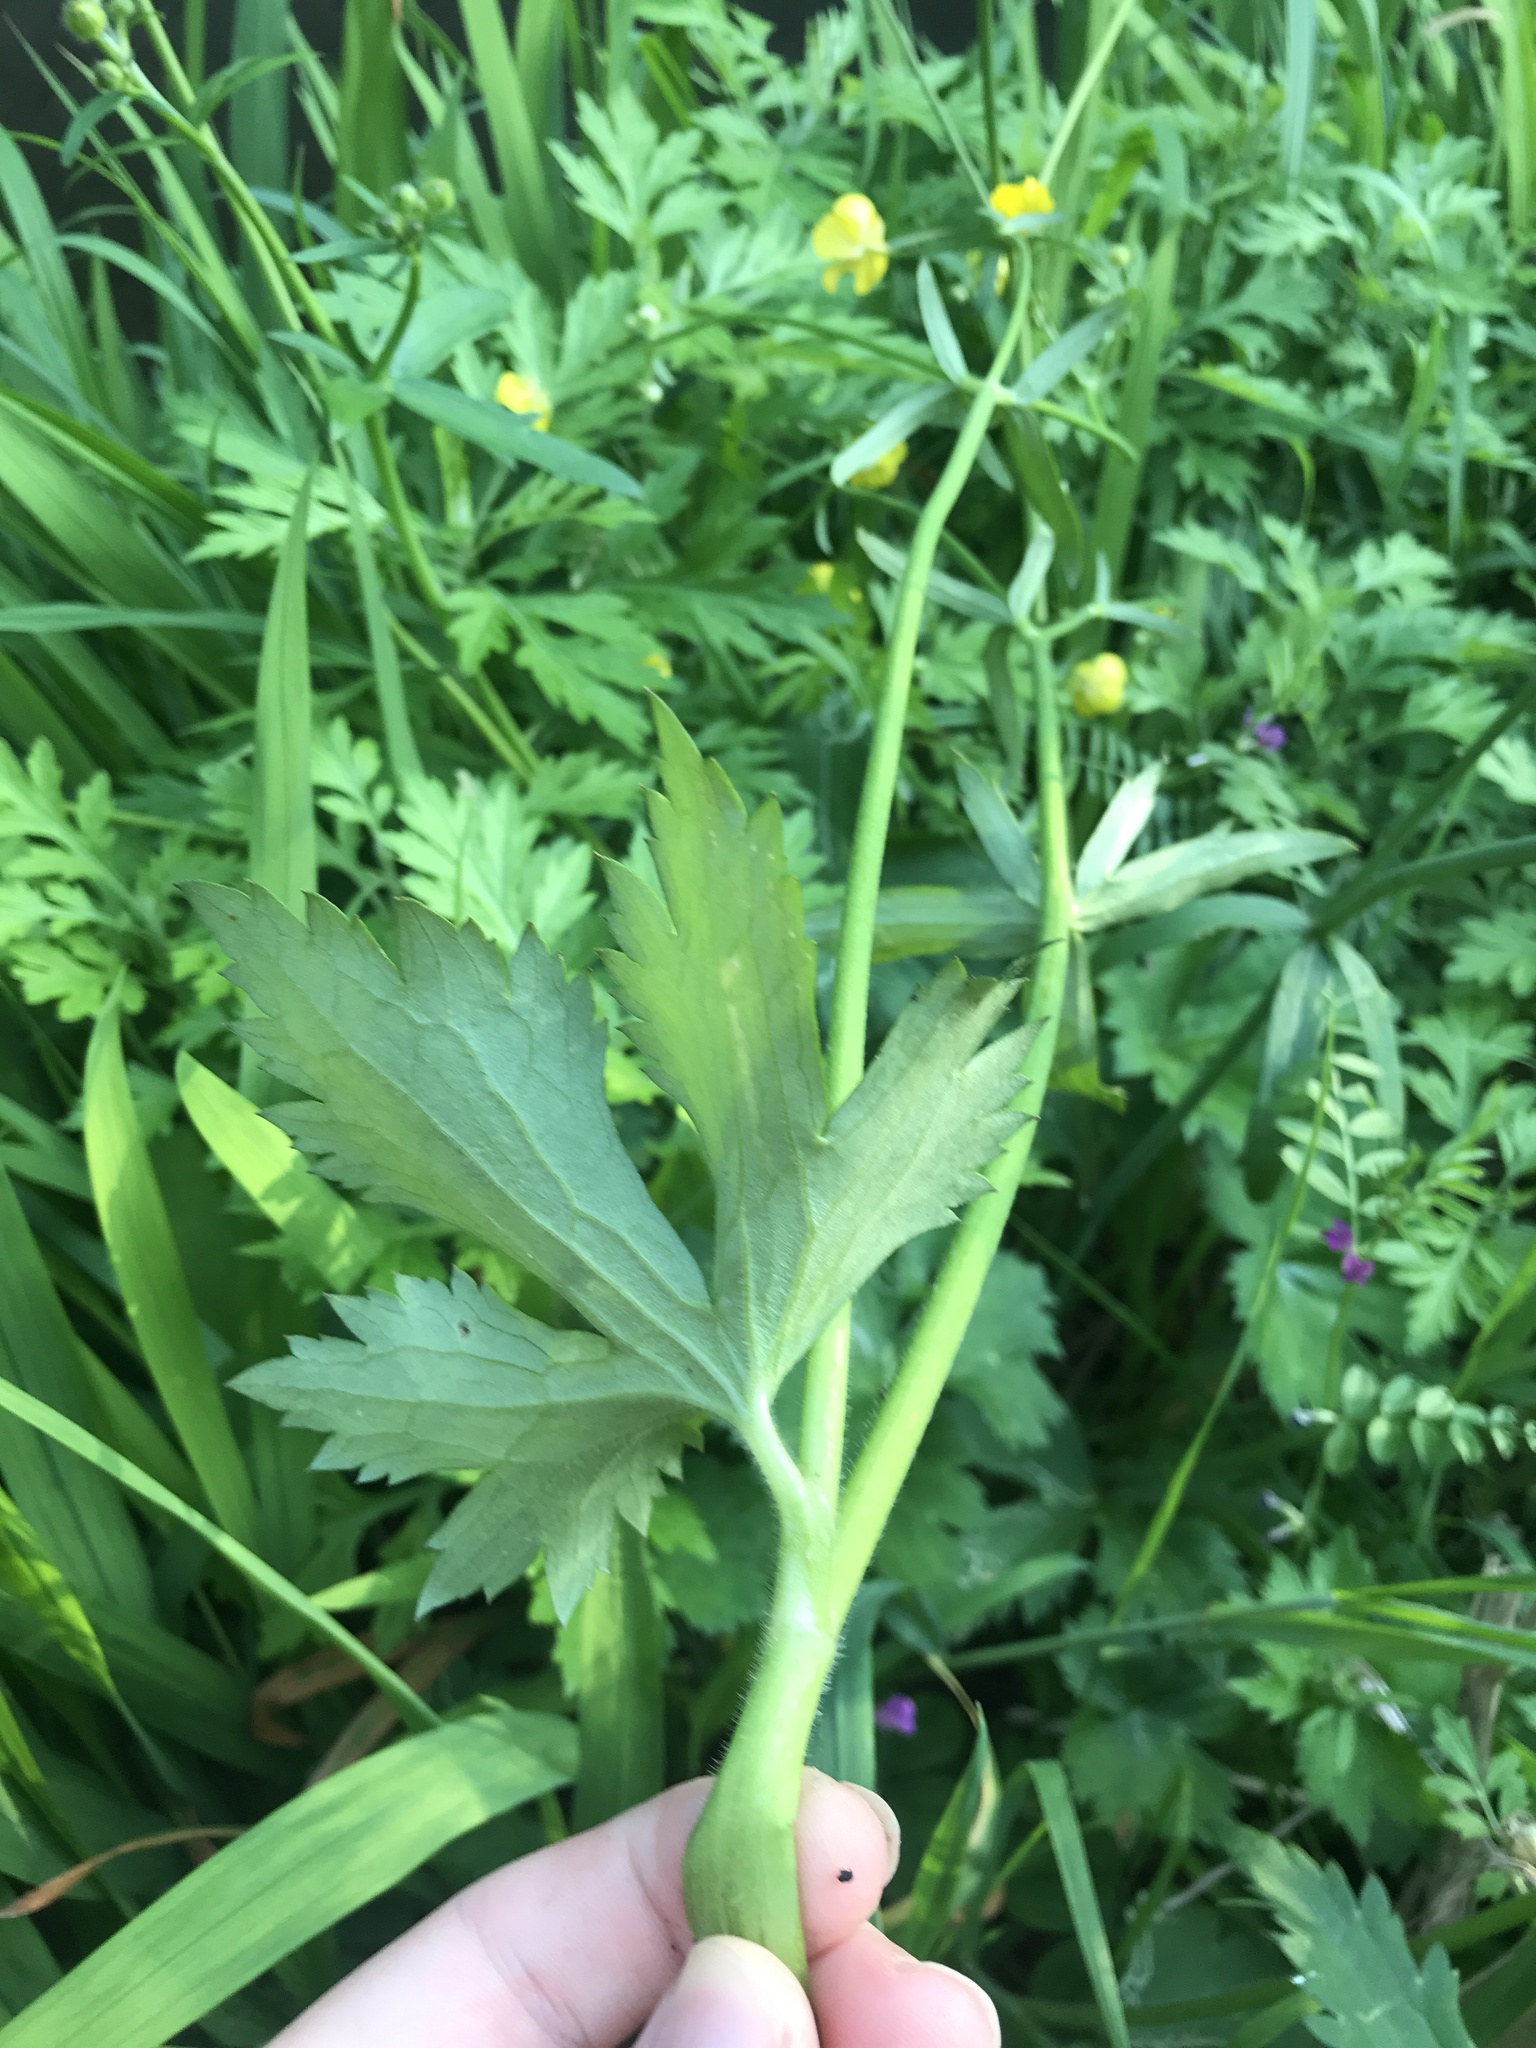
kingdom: Plantae
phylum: Tracheophyta
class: Magnoliopsida
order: Ranunculales
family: Ranunculaceae
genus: Ranunculus
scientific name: Ranunculus japonicus
